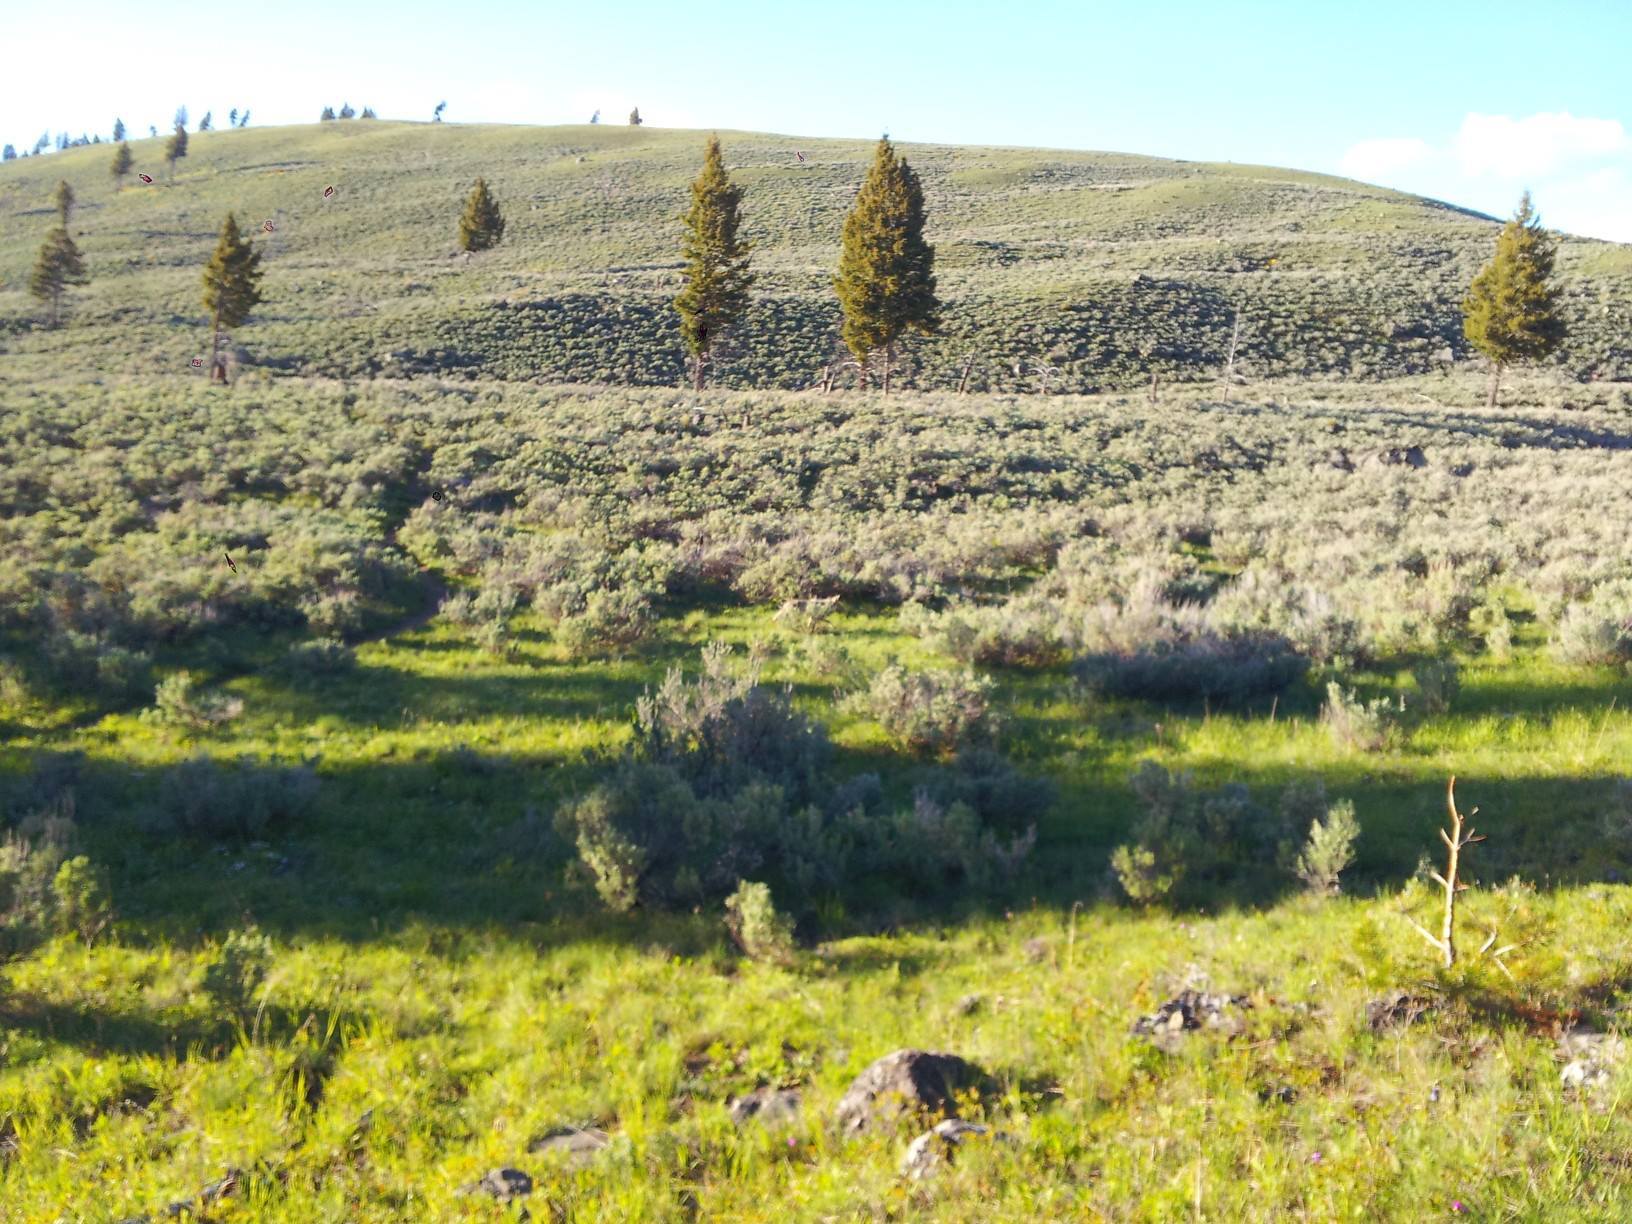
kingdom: Animalia
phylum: Chordata
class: Mammalia
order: Carnivora
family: Canidae
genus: Canis
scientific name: Canis latrans
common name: Coyote
